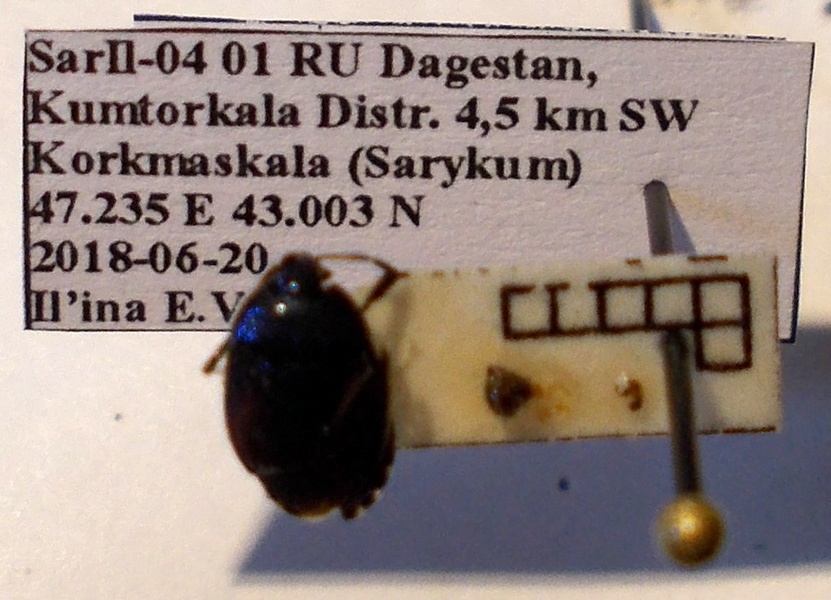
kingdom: Animalia
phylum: Arthropoda
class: Insecta
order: Hemiptera
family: Cydnidae
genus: Canthophorus
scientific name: Canthophorus melanopterus
